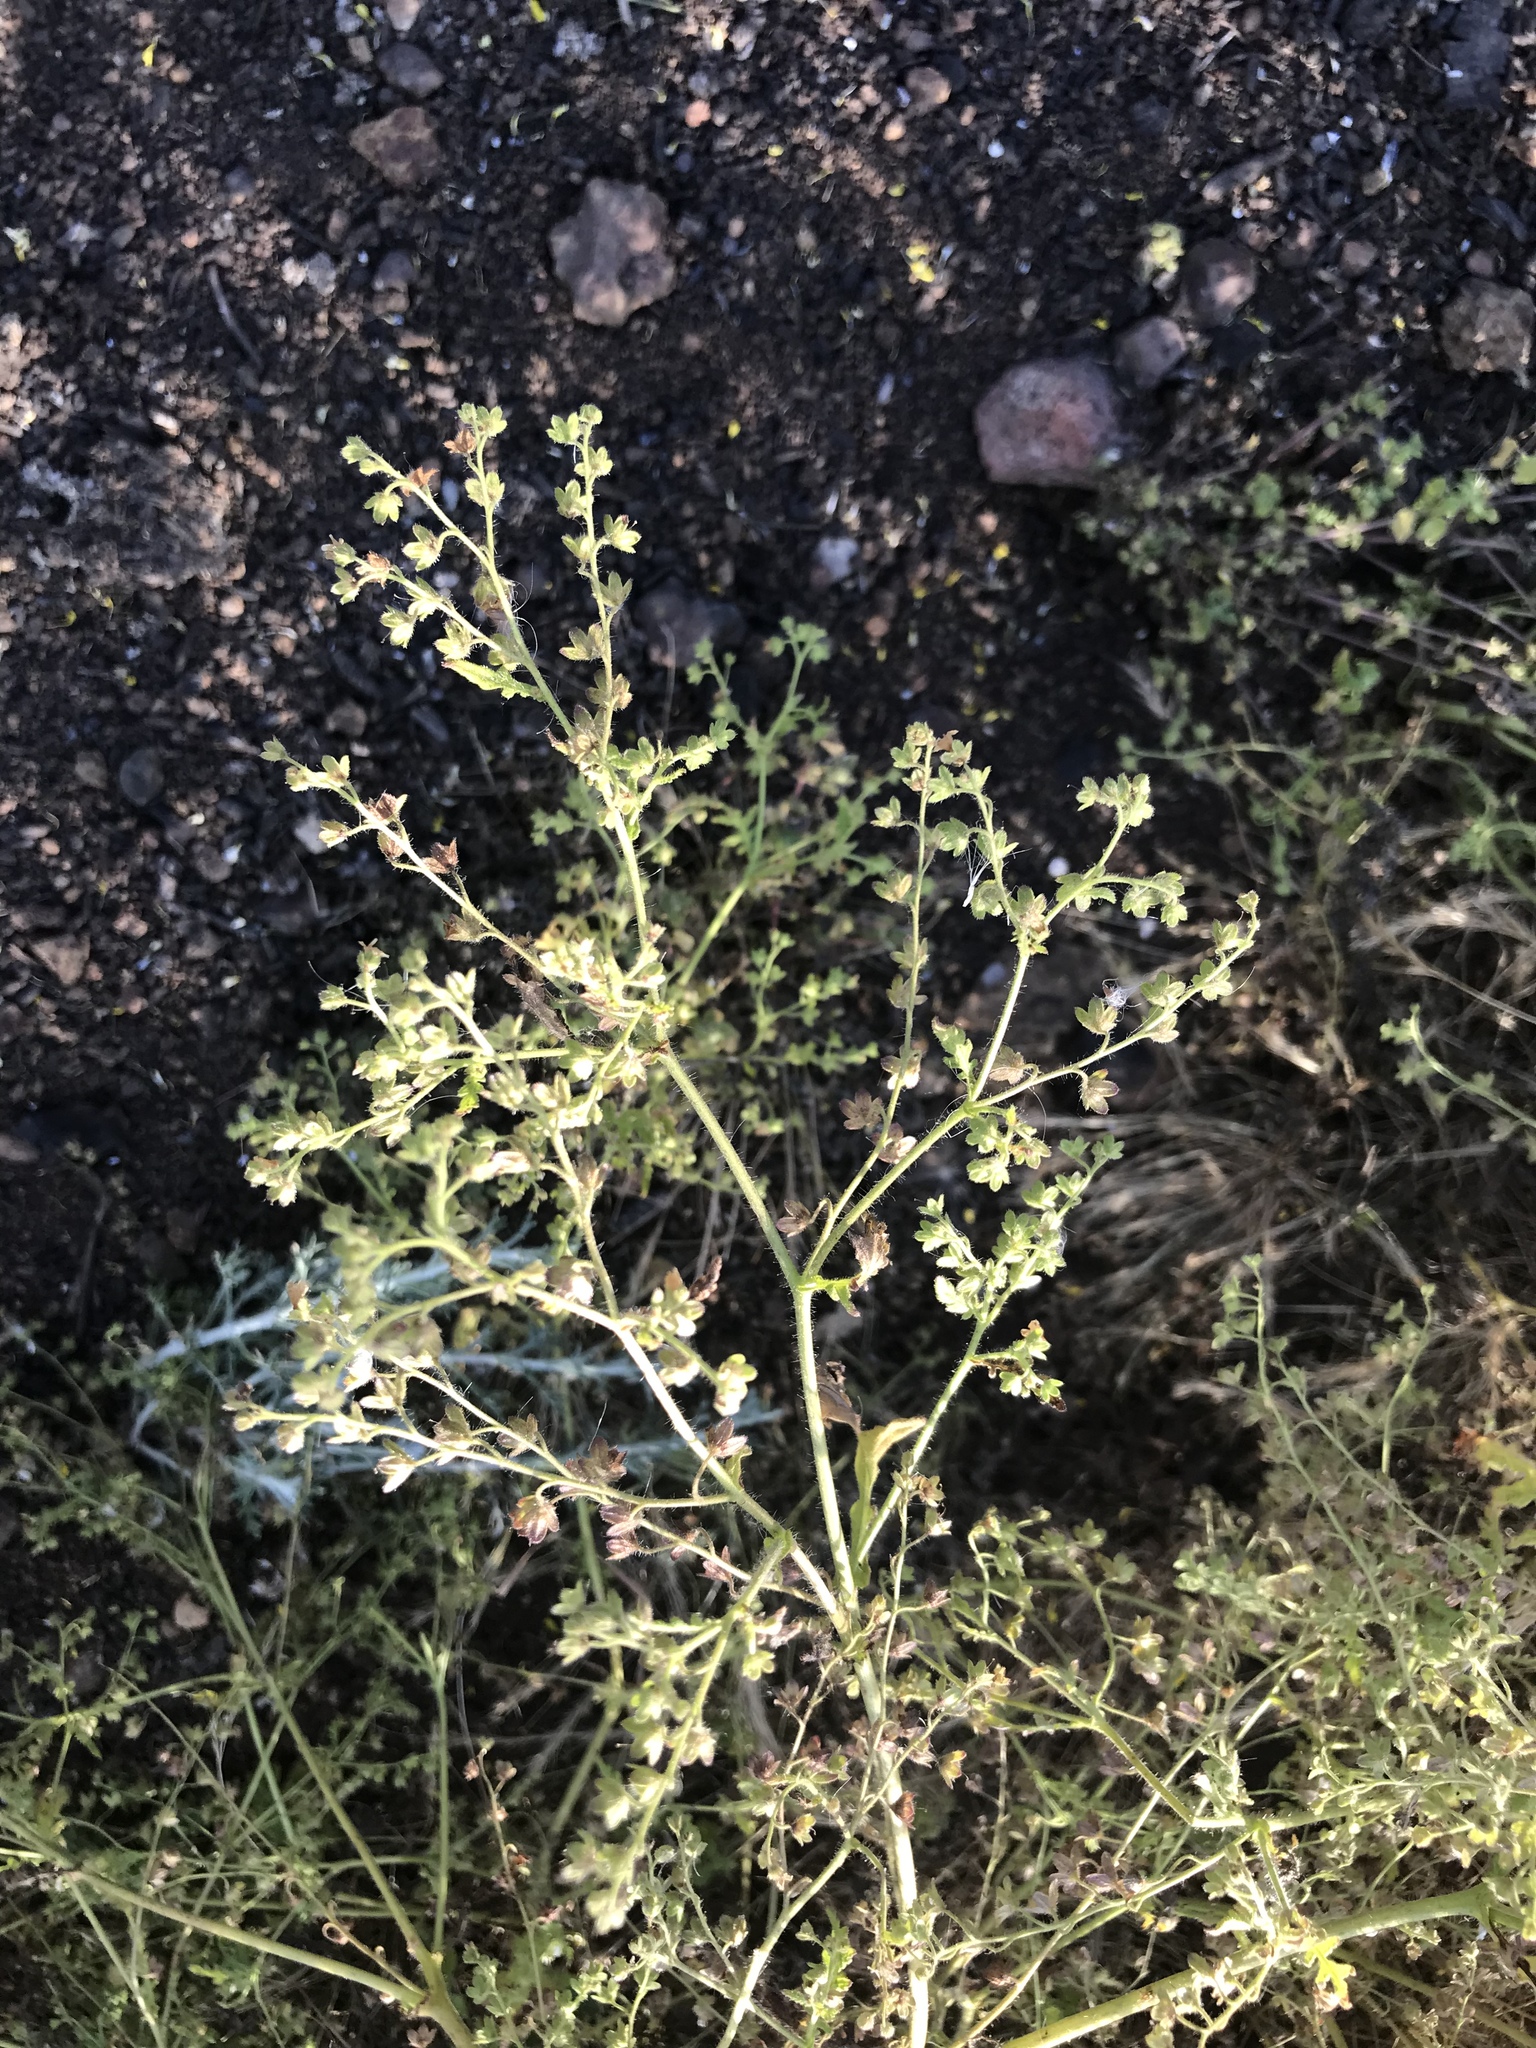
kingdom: Plantae
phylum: Tracheophyta
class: Magnoliopsida
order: Boraginales
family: Hydrophyllaceae
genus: Eucrypta
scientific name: Eucrypta chrysanthemifolia
